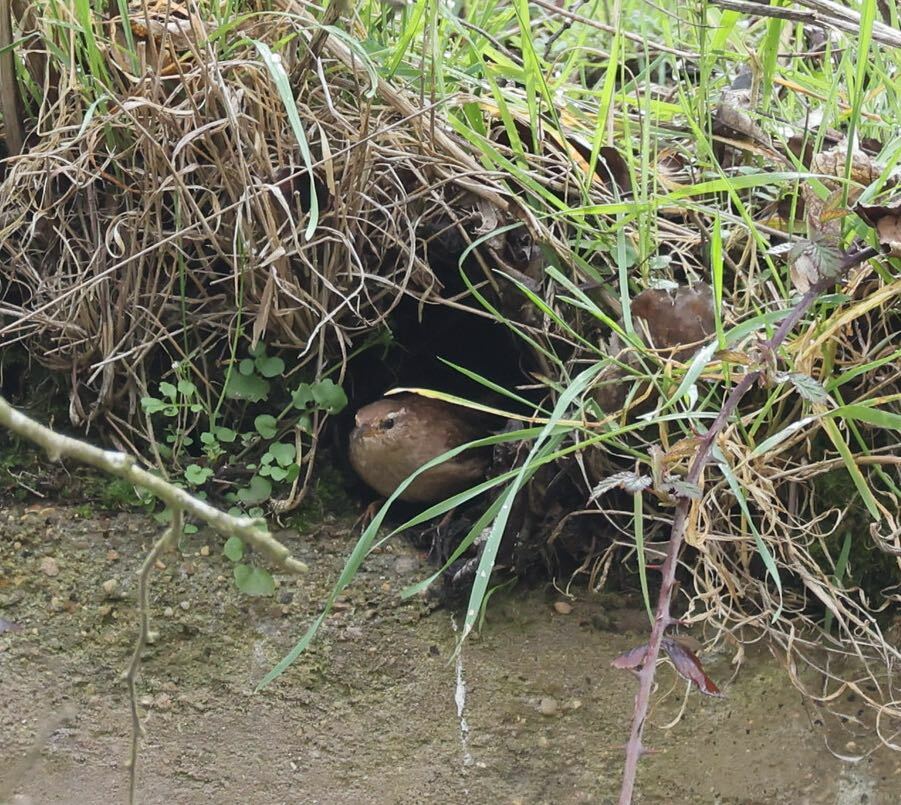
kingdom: Animalia
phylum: Chordata
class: Aves
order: Passeriformes
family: Troglodytidae
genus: Troglodytes
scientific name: Troglodytes troglodytes
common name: Eurasian wren
